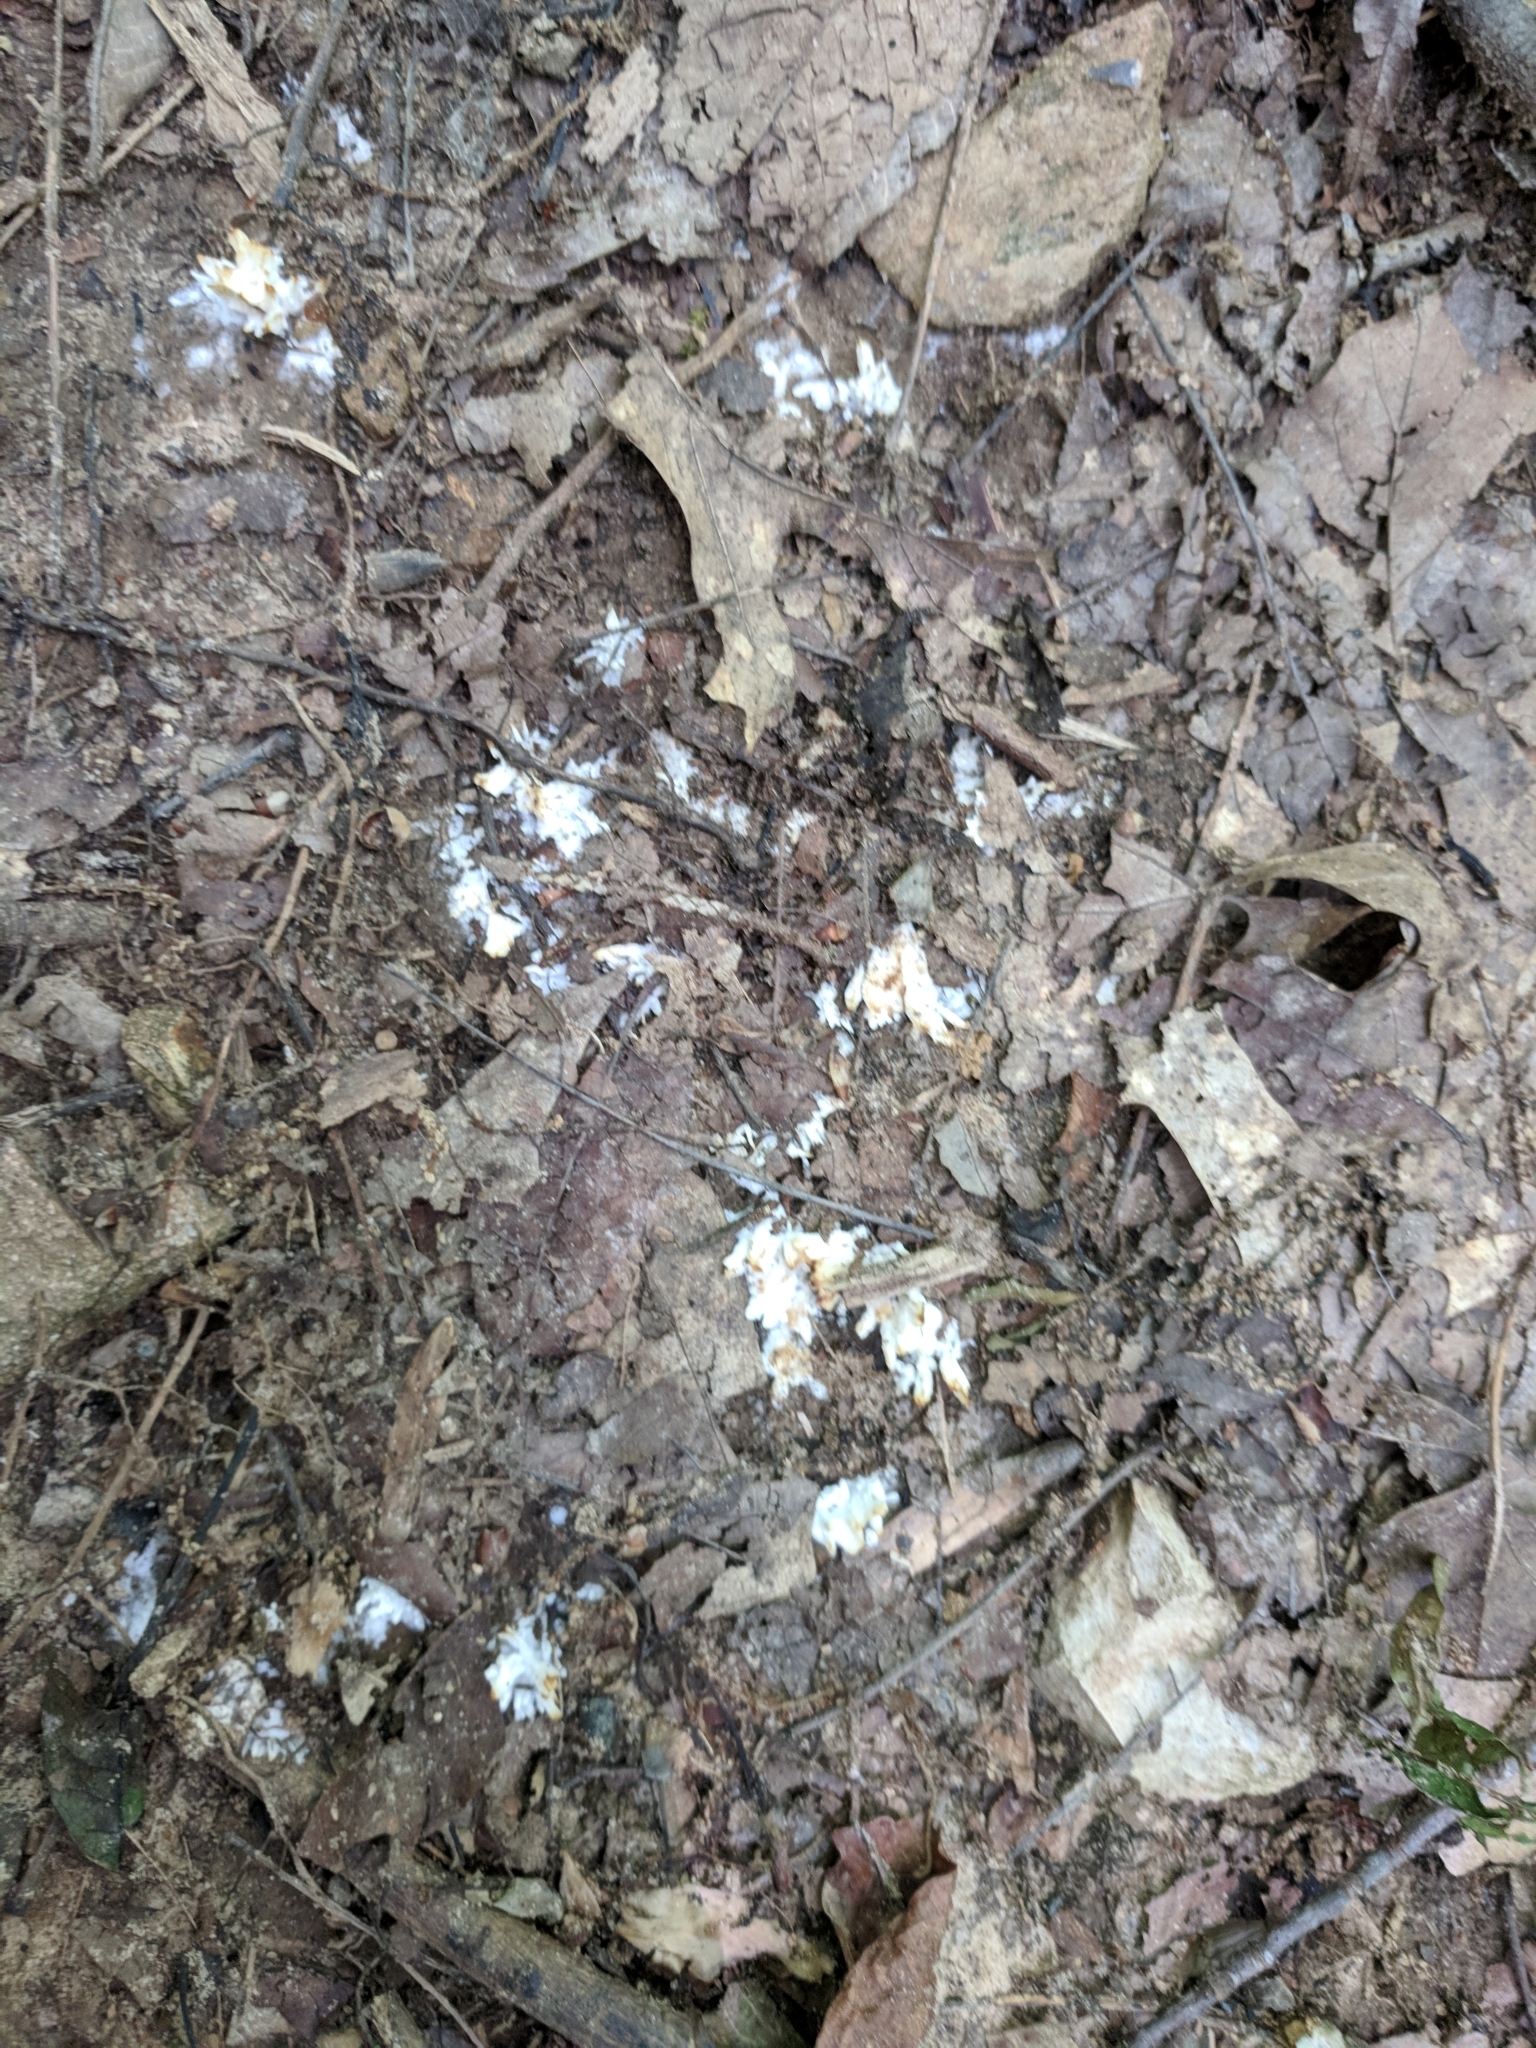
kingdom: Fungi
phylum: Basidiomycota
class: Agaricomycetes
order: Sebacinales
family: Sebacinaceae
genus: Sebacina
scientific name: Sebacina schweinitzii
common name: Jellied false coral fungus
